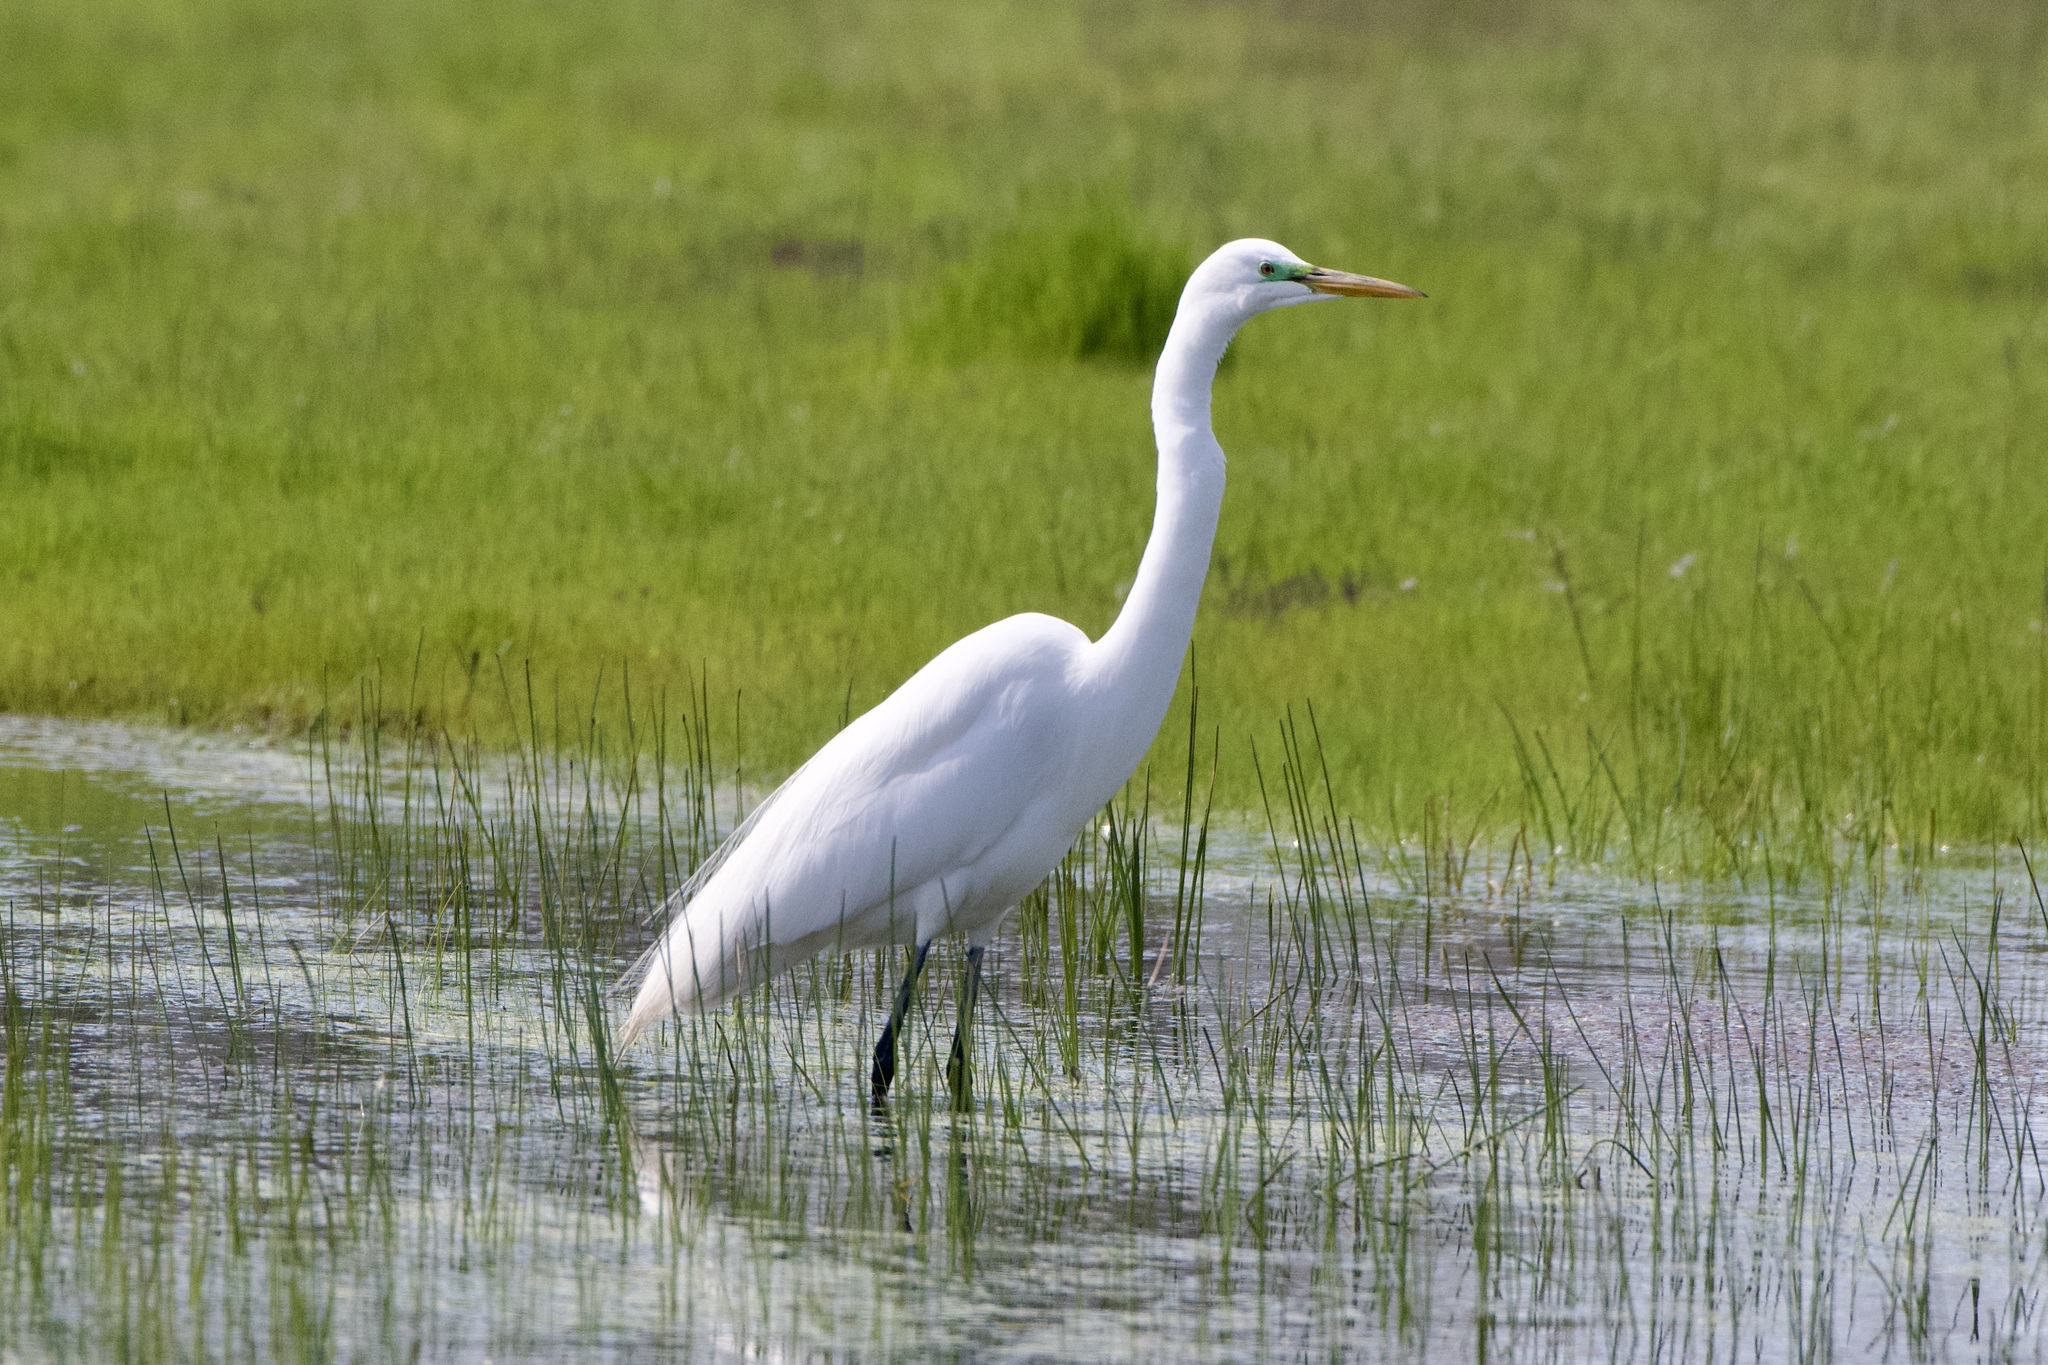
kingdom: Animalia
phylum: Chordata
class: Aves
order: Pelecaniformes
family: Ardeidae
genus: Ardea
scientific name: Ardea alba
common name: Great egret
